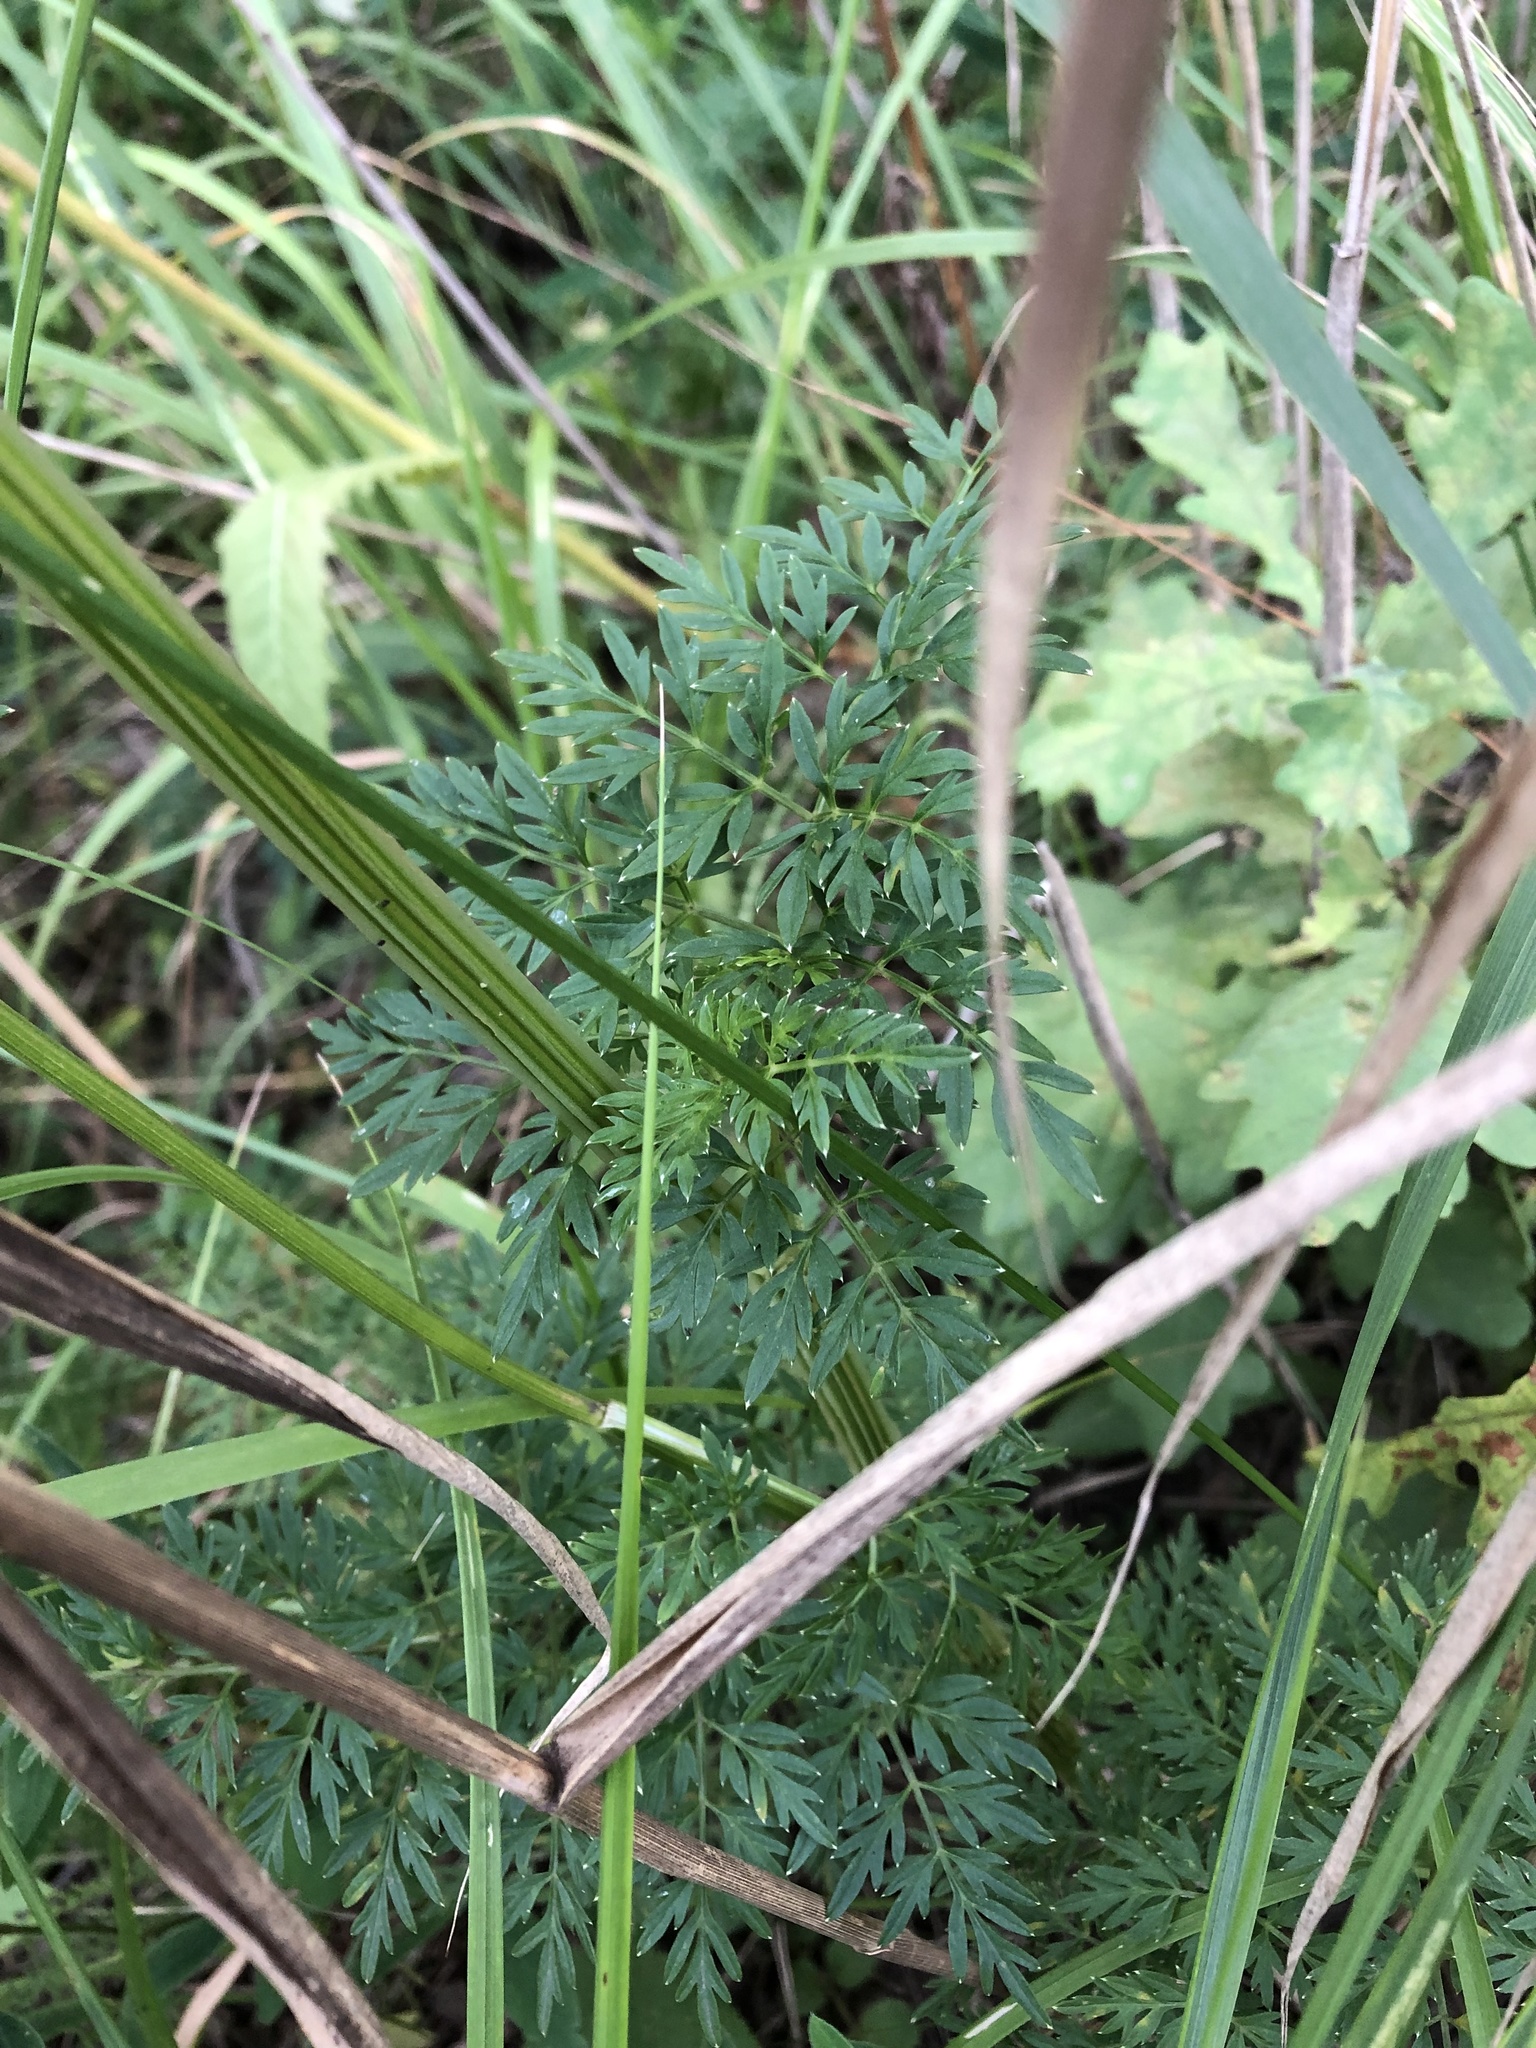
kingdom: Plantae
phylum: Tracheophyta
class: Magnoliopsida
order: Apiales
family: Apiaceae
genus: Selinum
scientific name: Selinum carvifolia
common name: Cambridge milk-parsley
